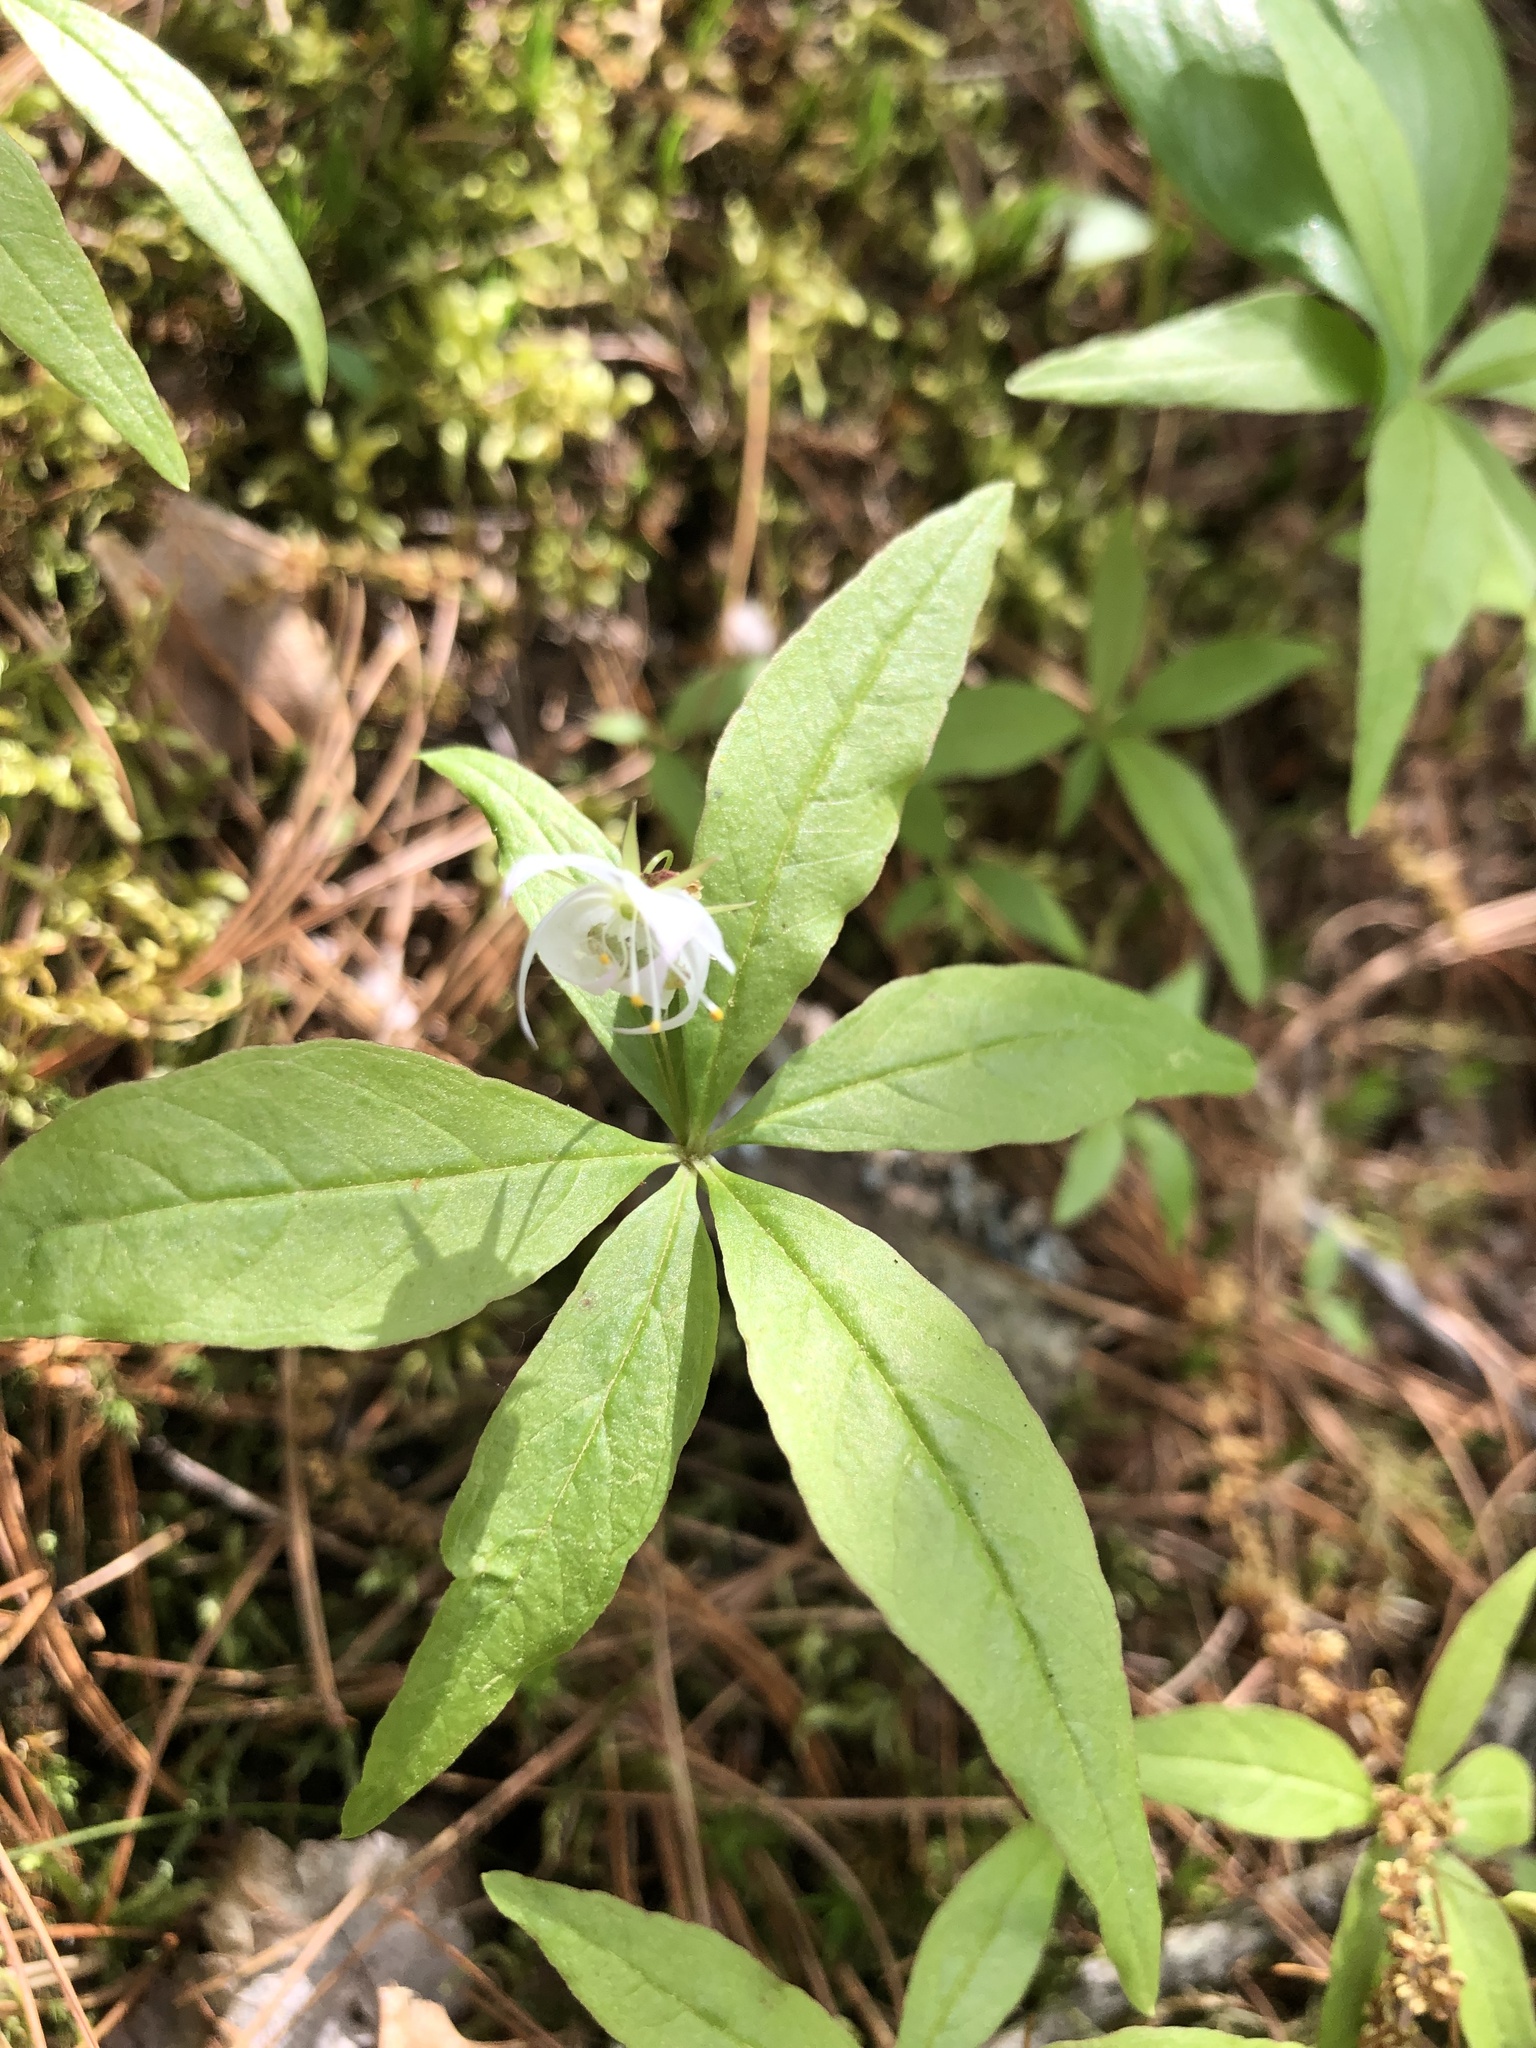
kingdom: Plantae
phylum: Tracheophyta
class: Magnoliopsida
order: Ericales
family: Primulaceae
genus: Lysimachia
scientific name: Lysimachia borealis
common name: American starflower
